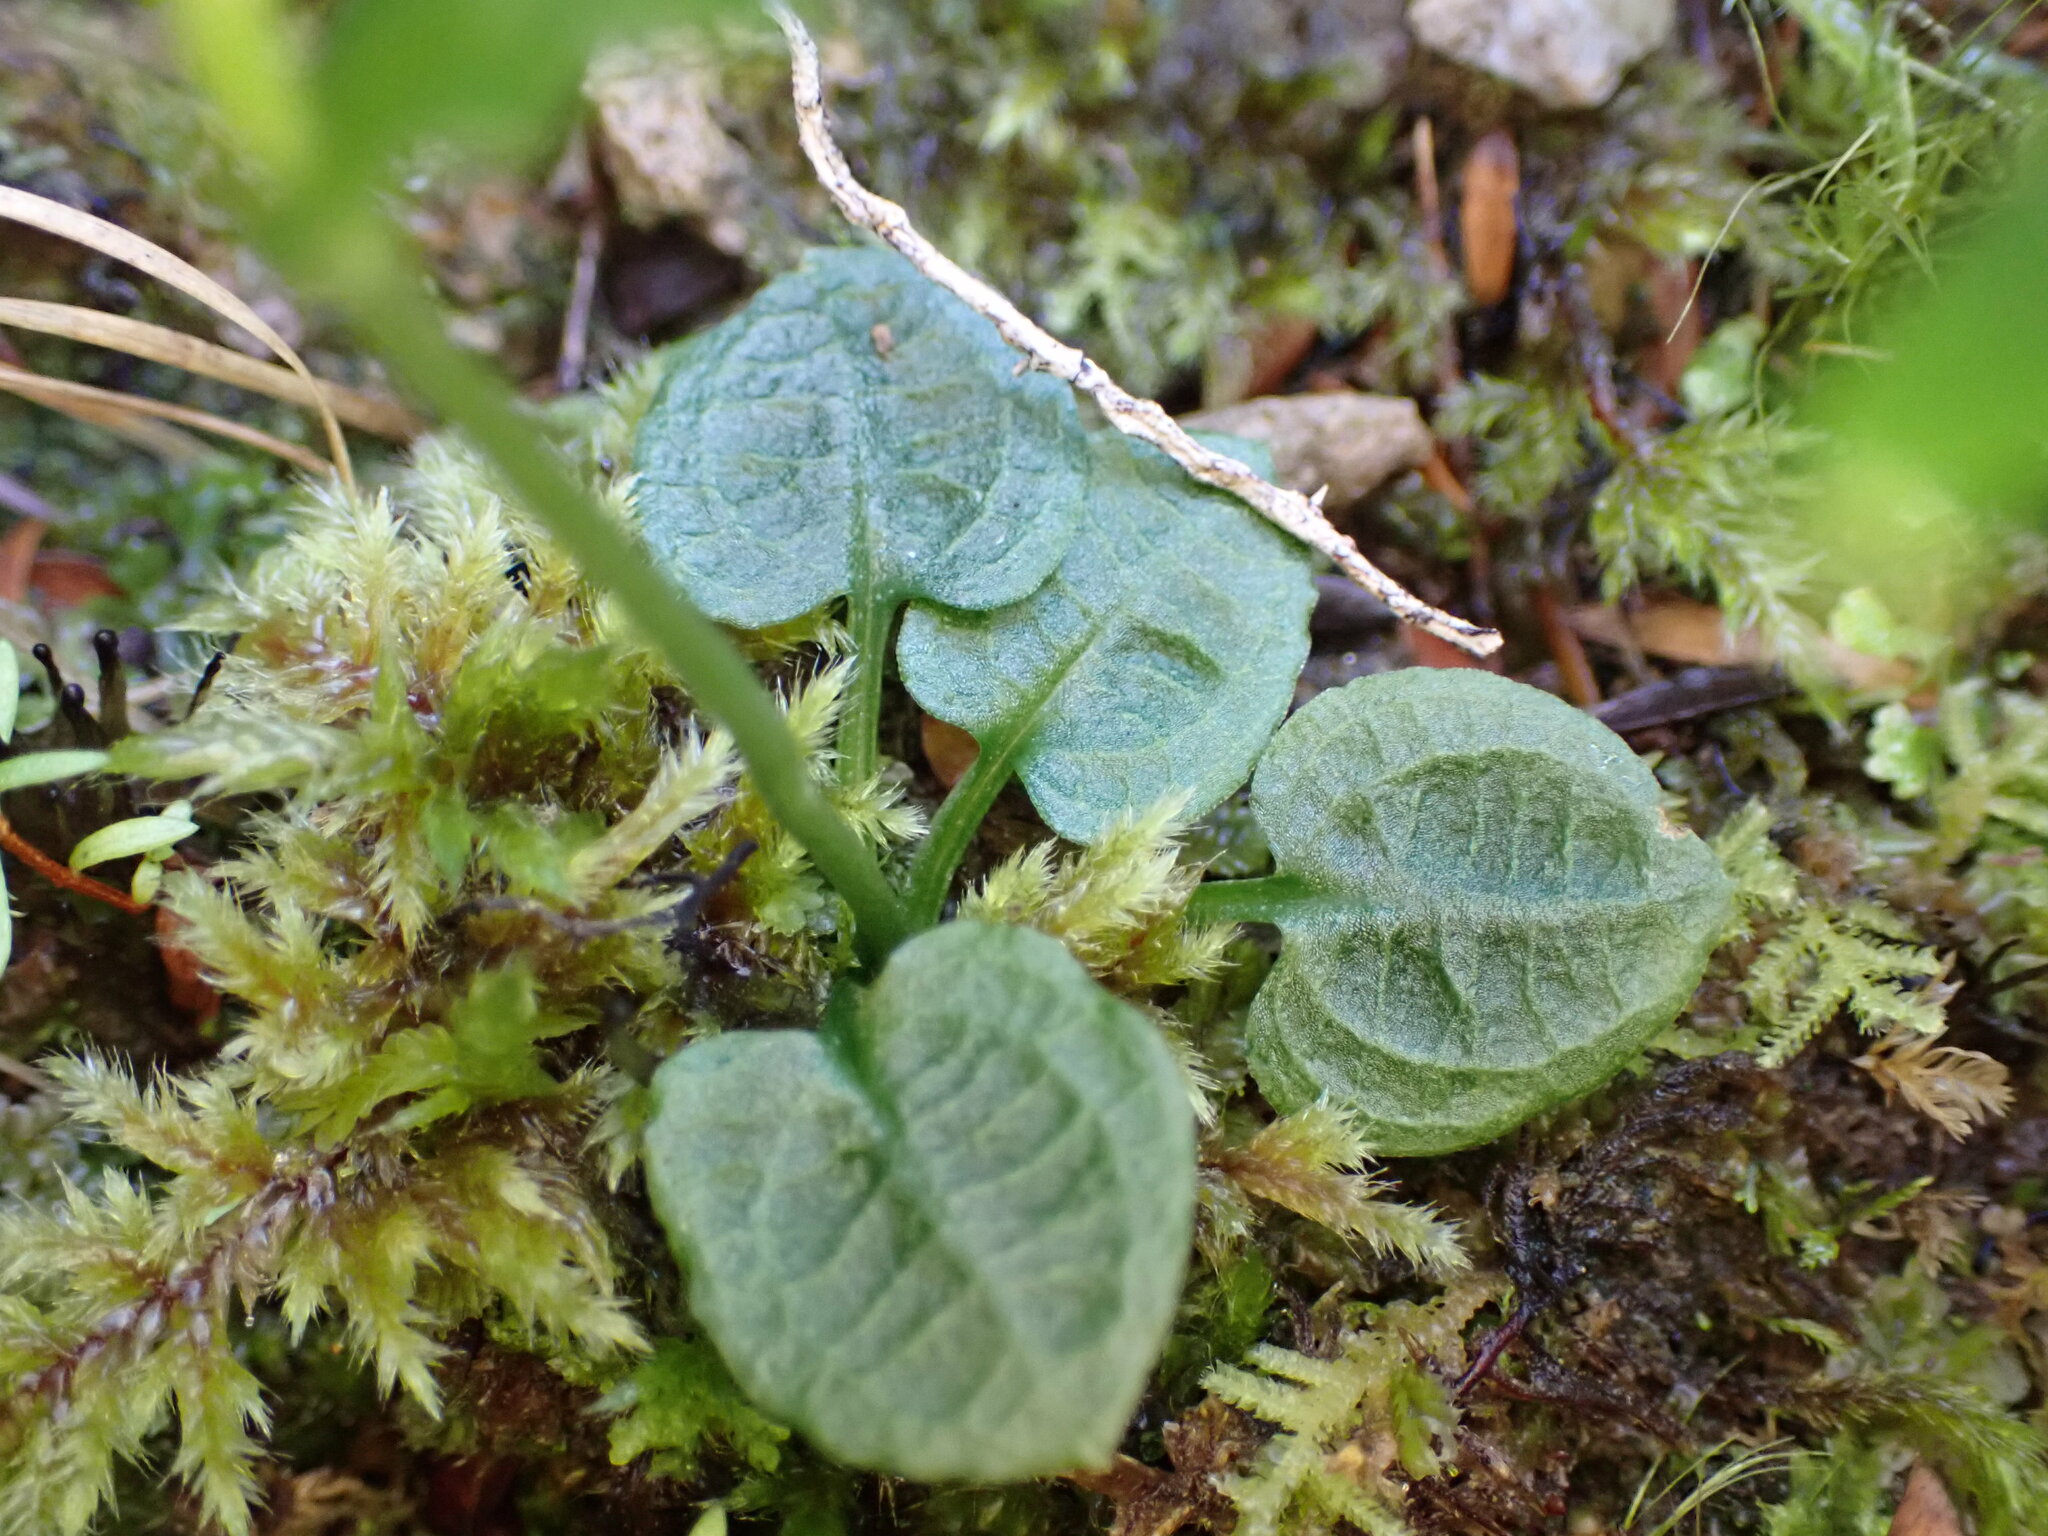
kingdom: Plantae
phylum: Tracheophyta
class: Liliopsida
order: Asparagales
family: Orchidaceae
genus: Pterostylis
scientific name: Pterostylis trullifolia
